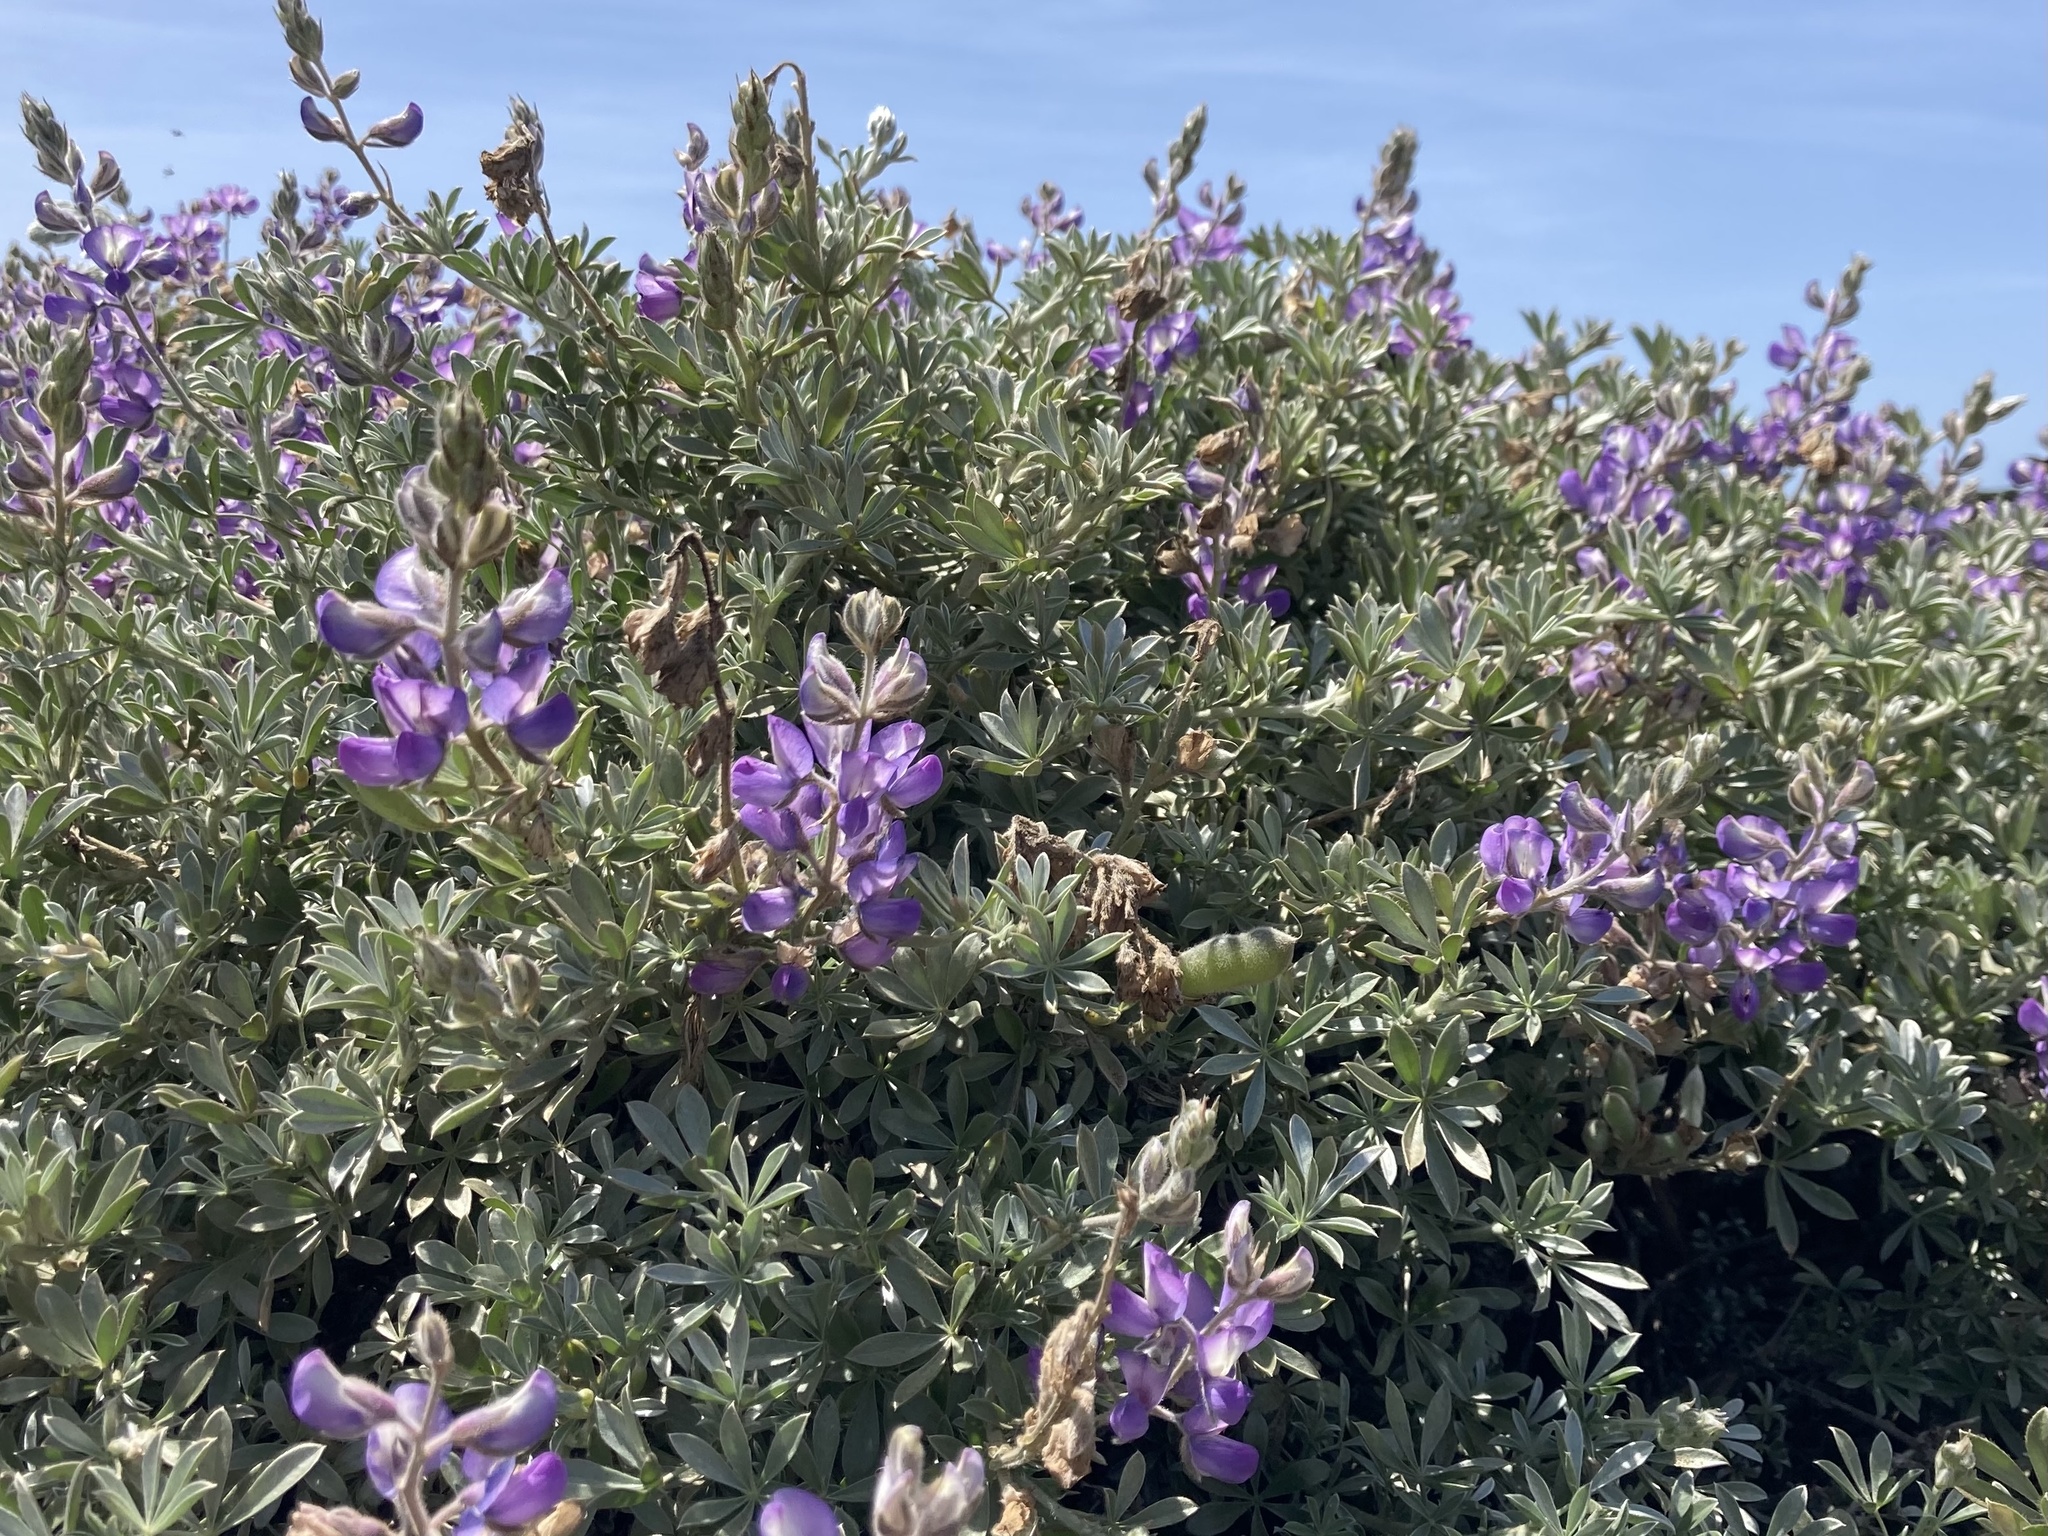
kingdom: Plantae
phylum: Tracheophyta
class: Magnoliopsida
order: Fabales
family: Fabaceae
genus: Lupinus
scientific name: Lupinus chamissonis
